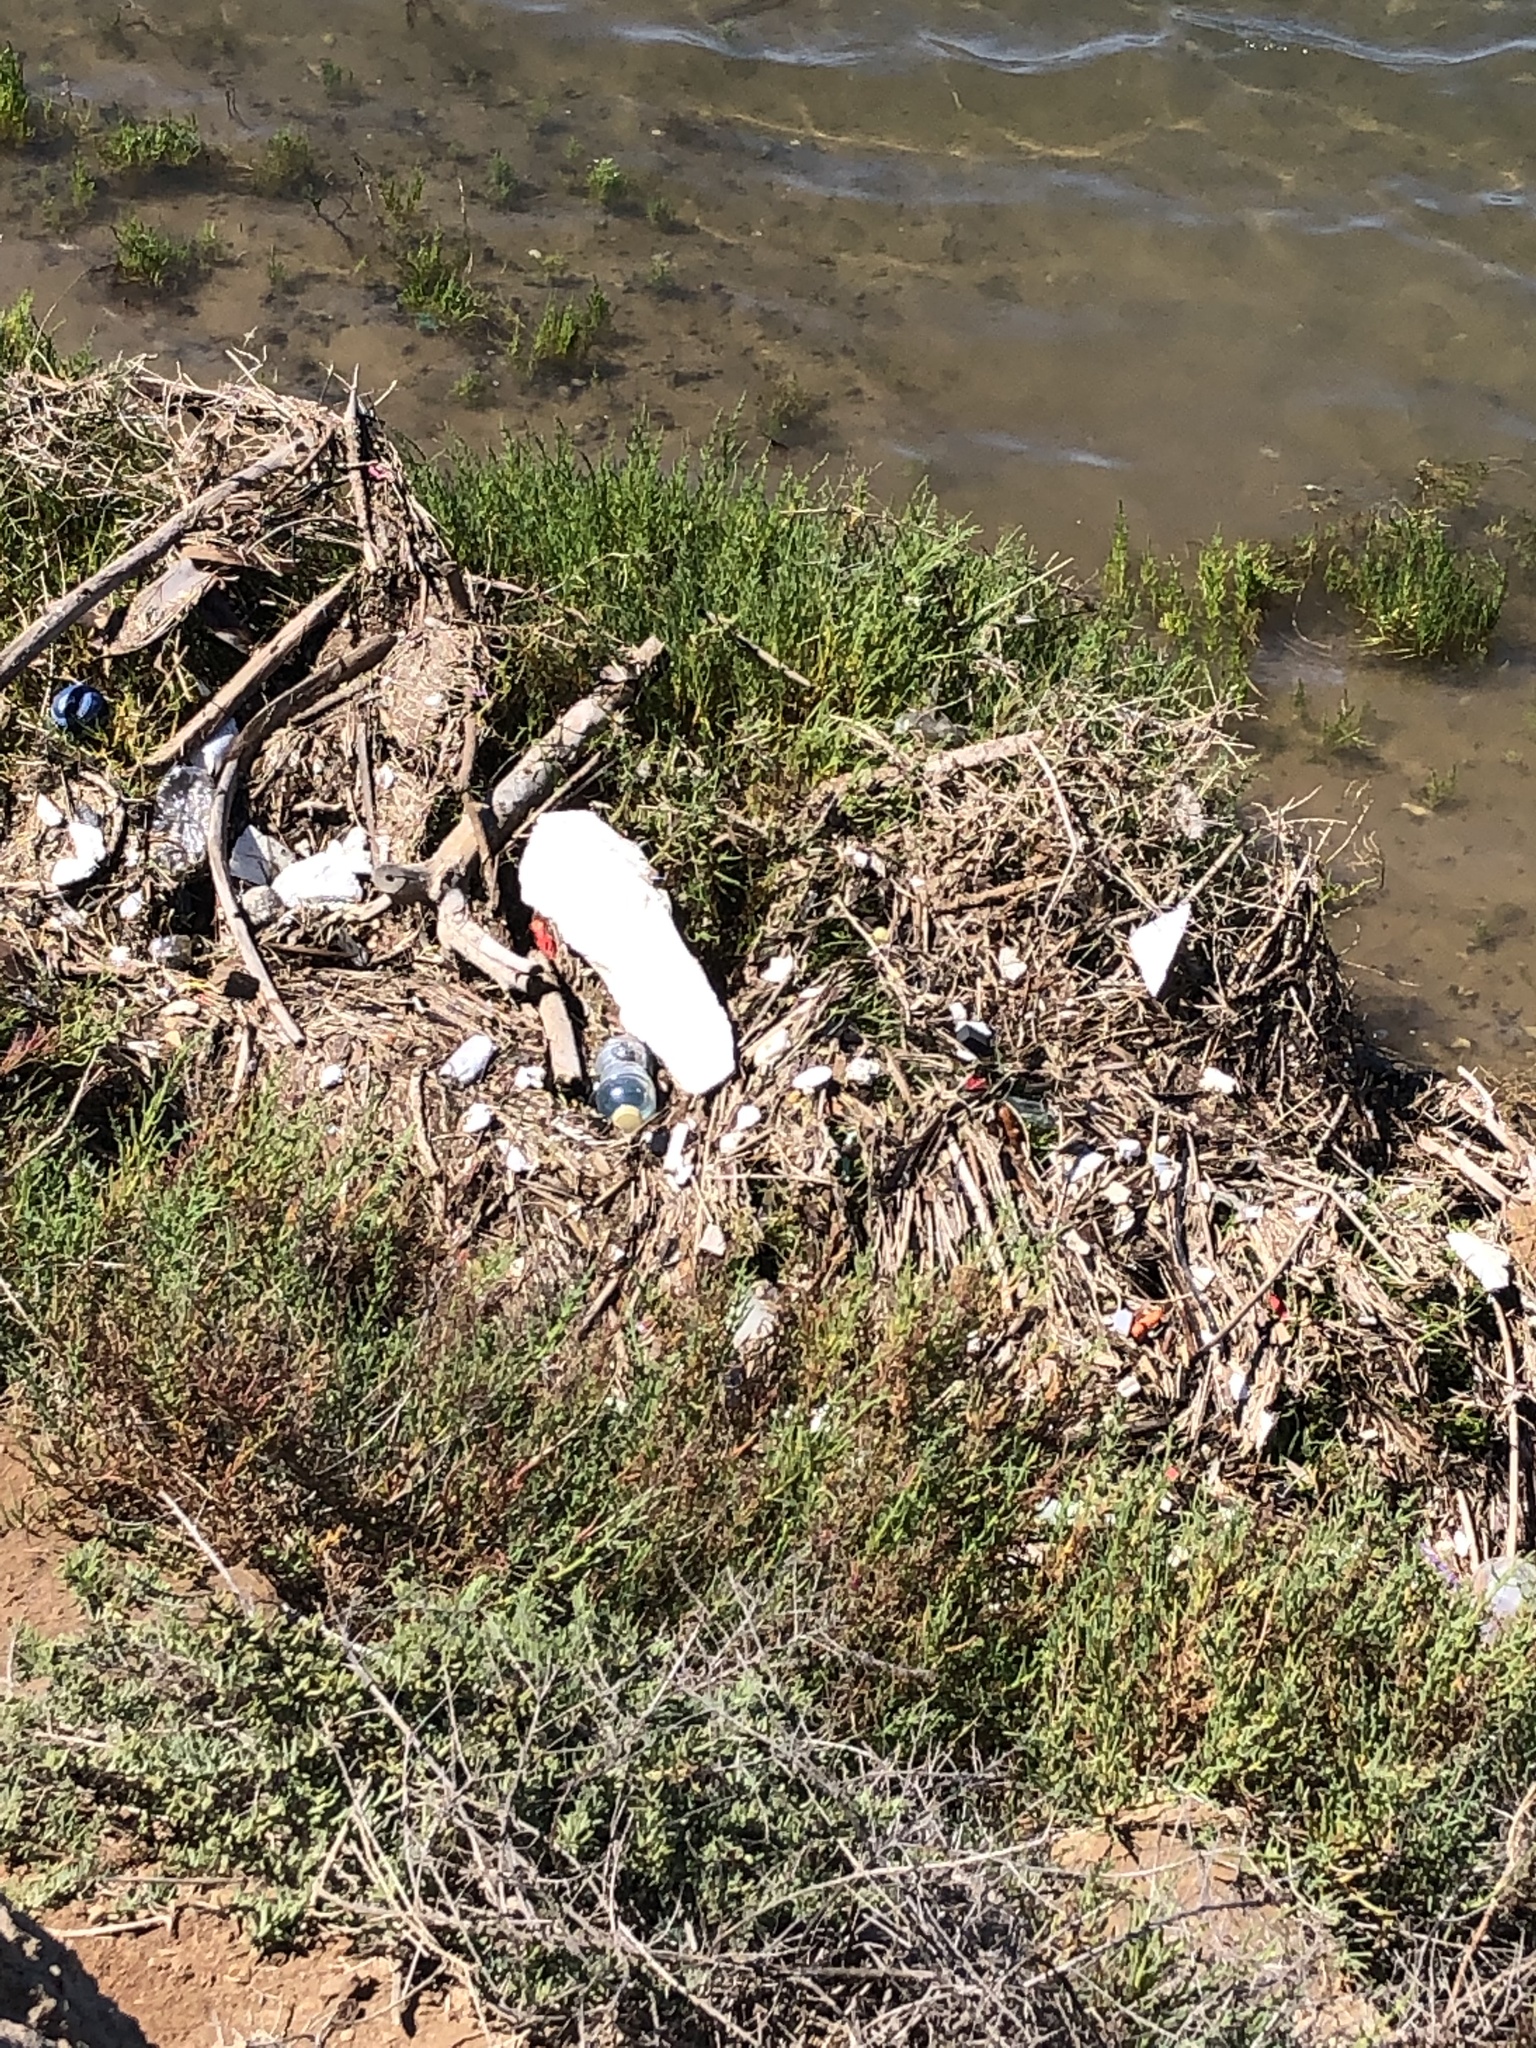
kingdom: Plantae
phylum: Tracheophyta
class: Magnoliopsida
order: Caryophyllales
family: Amaranthaceae
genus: Salicornia
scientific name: Salicornia pacifica
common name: Pacific glasswort
